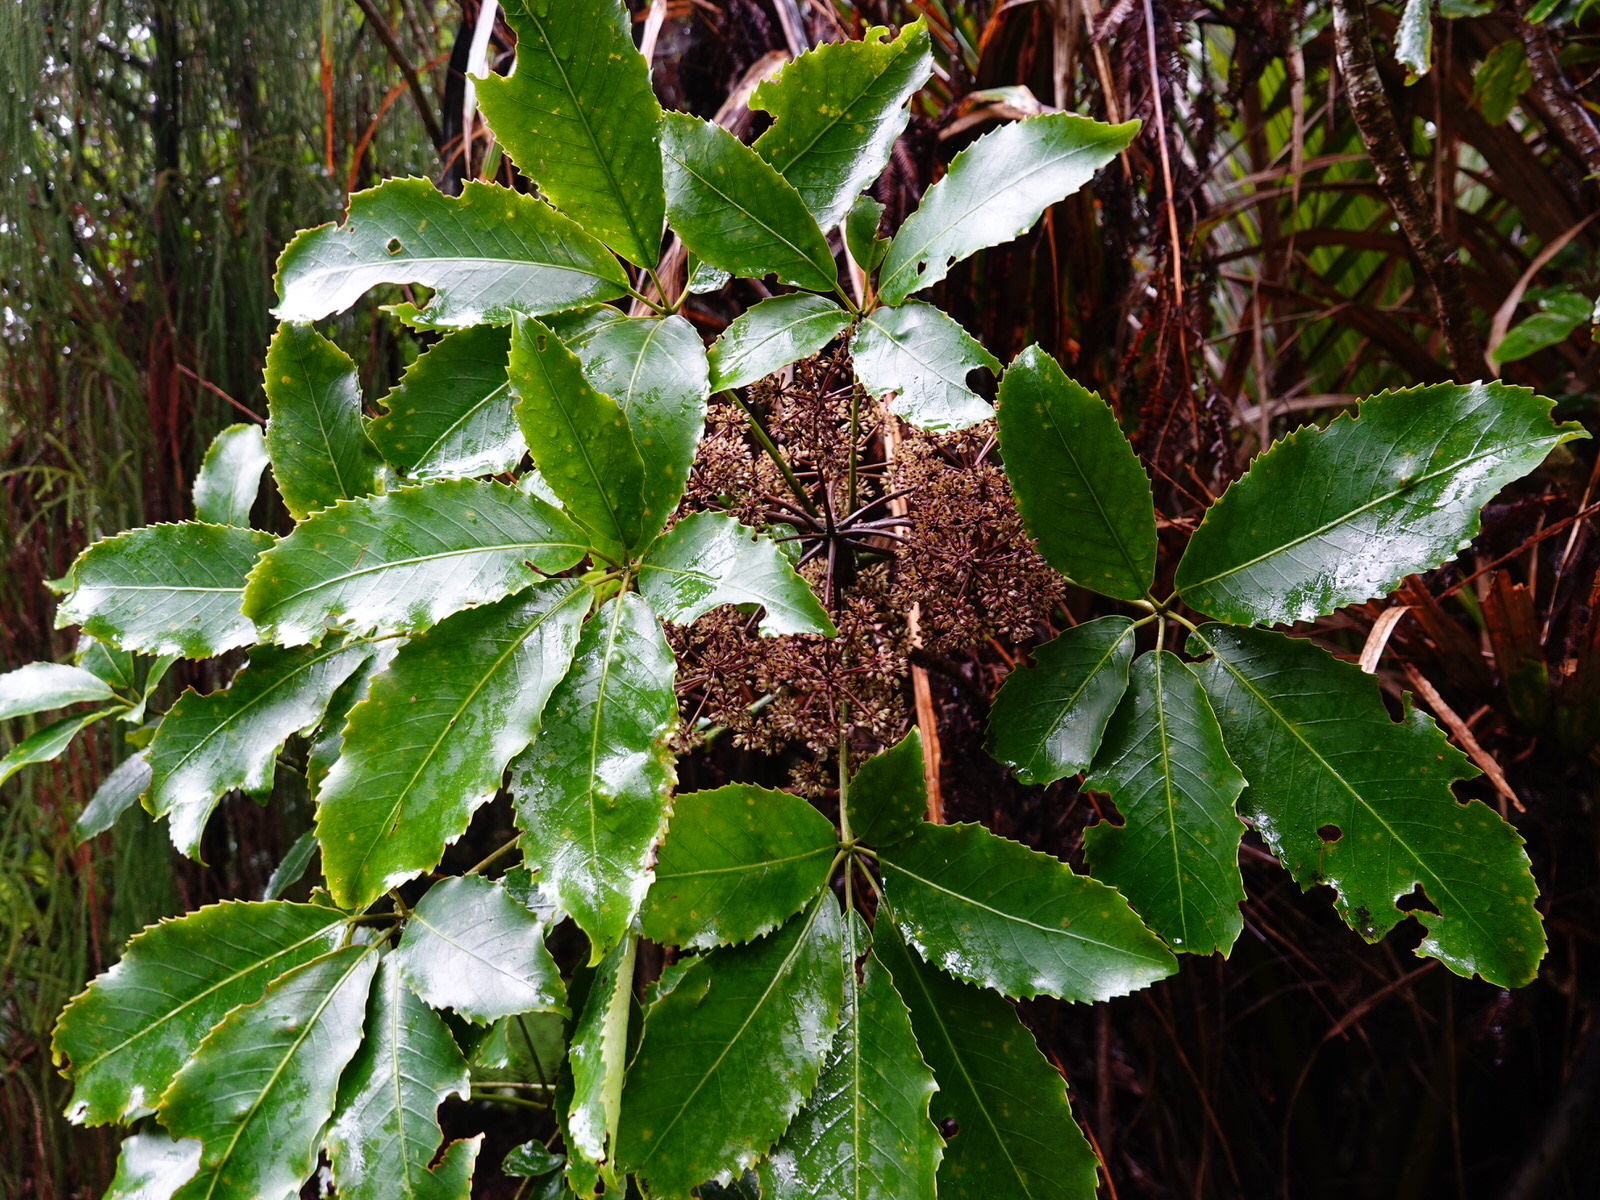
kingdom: Plantae
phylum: Tracheophyta
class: Magnoliopsida
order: Apiales
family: Araliaceae
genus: Neopanax
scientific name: Neopanax arboreus
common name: Five-fingers
